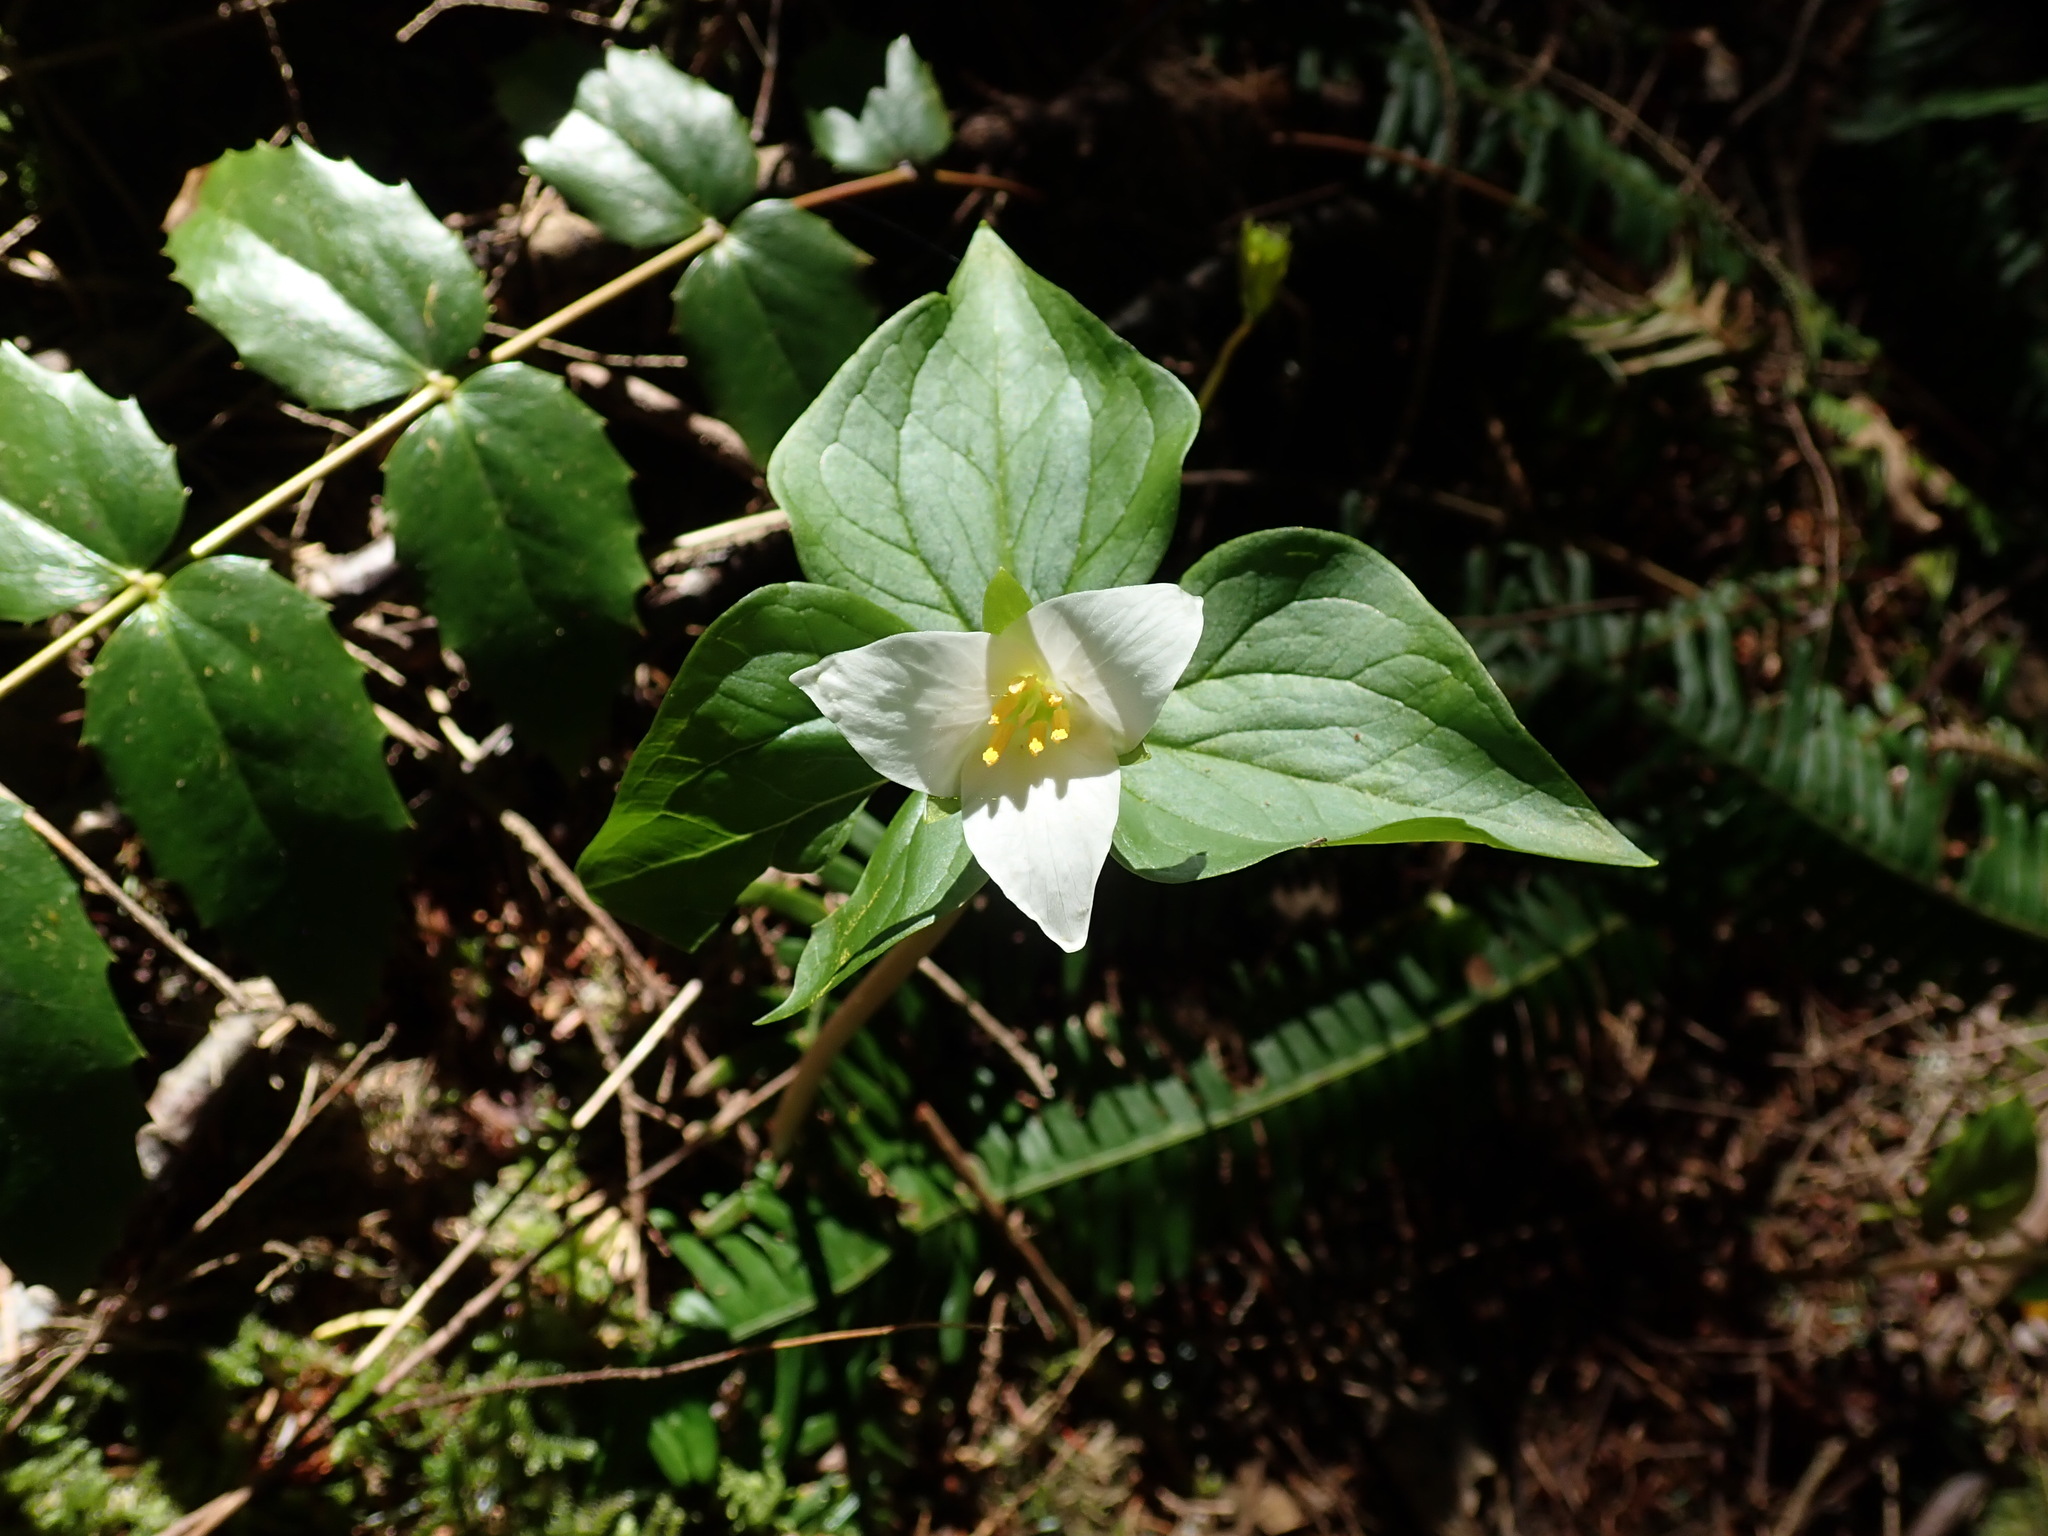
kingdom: Plantae
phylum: Tracheophyta
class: Liliopsida
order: Liliales
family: Melanthiaceae
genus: Trillium
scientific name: Trillium ovatum
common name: Pacific trillium
